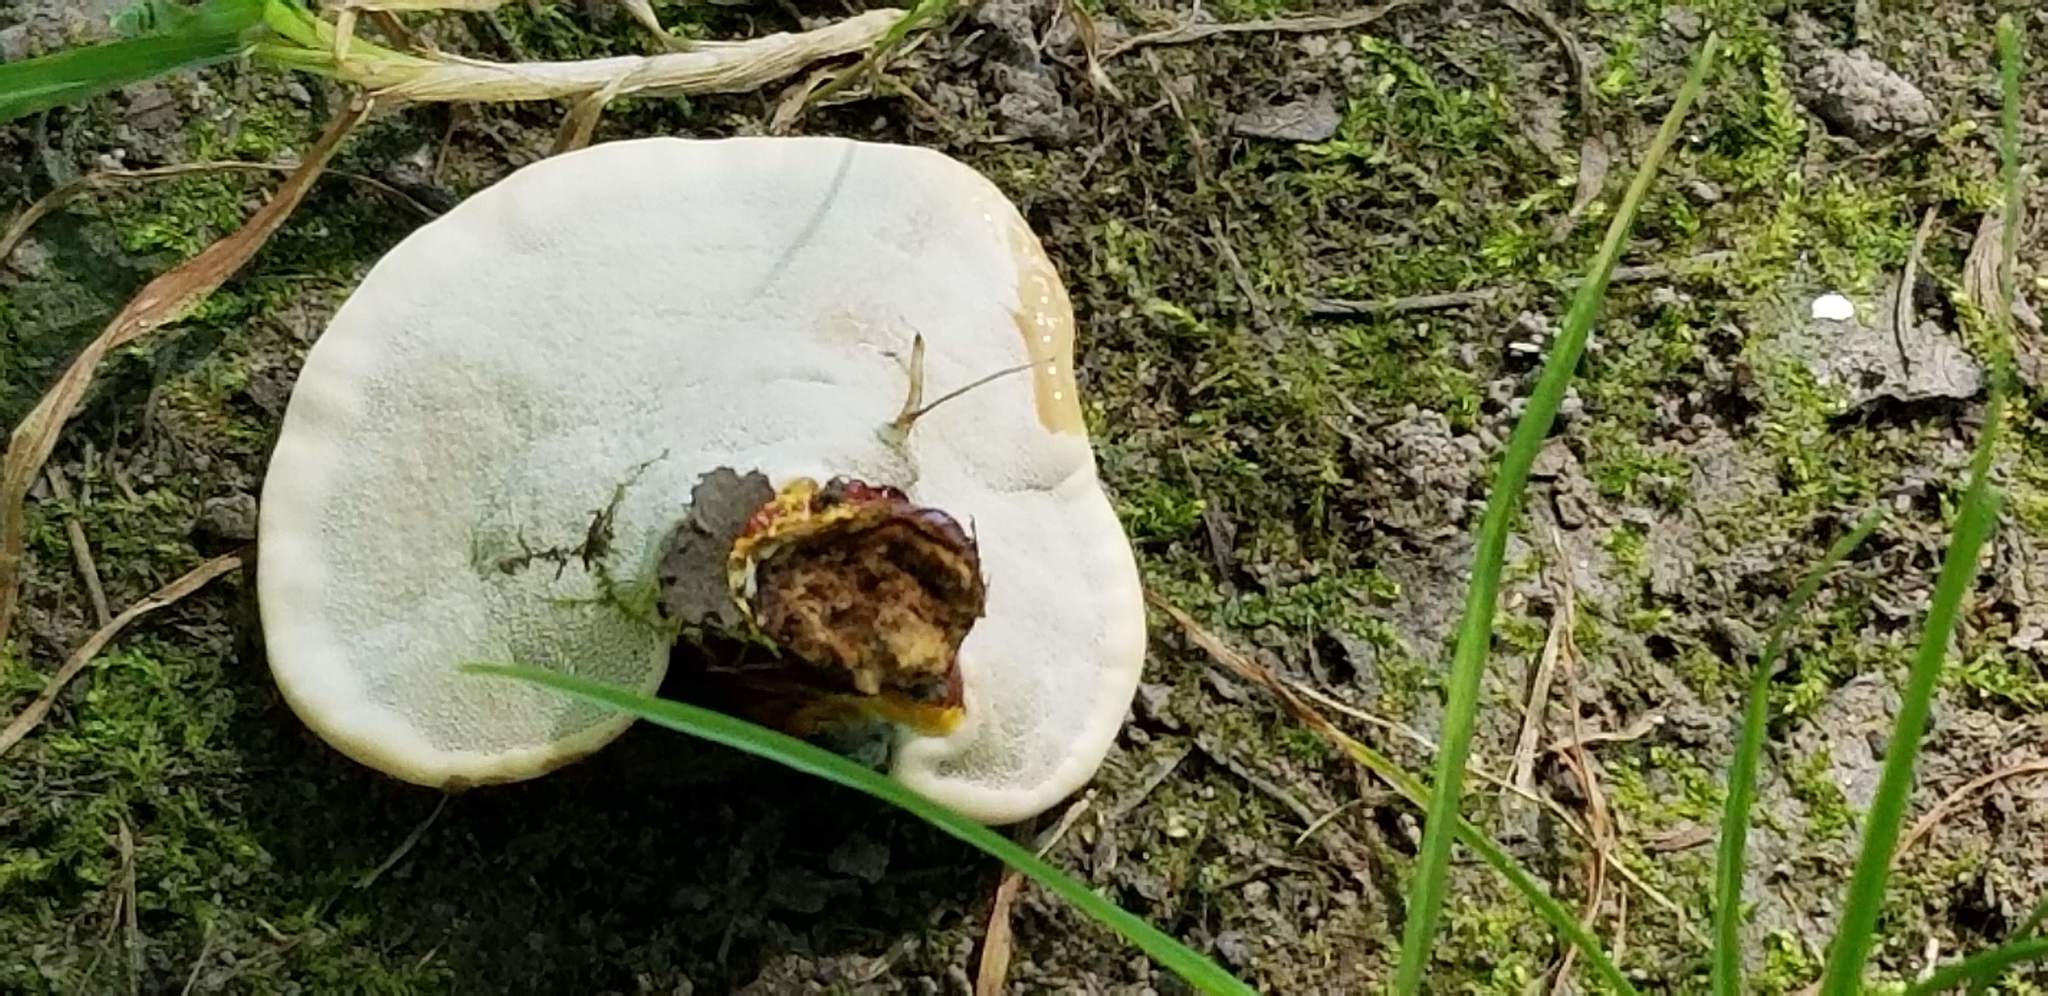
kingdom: Fungi
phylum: Basidiomycota
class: Agaricomycetes
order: Polyporales
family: Polyporaceae
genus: Ganoderma
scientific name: Ganoderma curtisii
